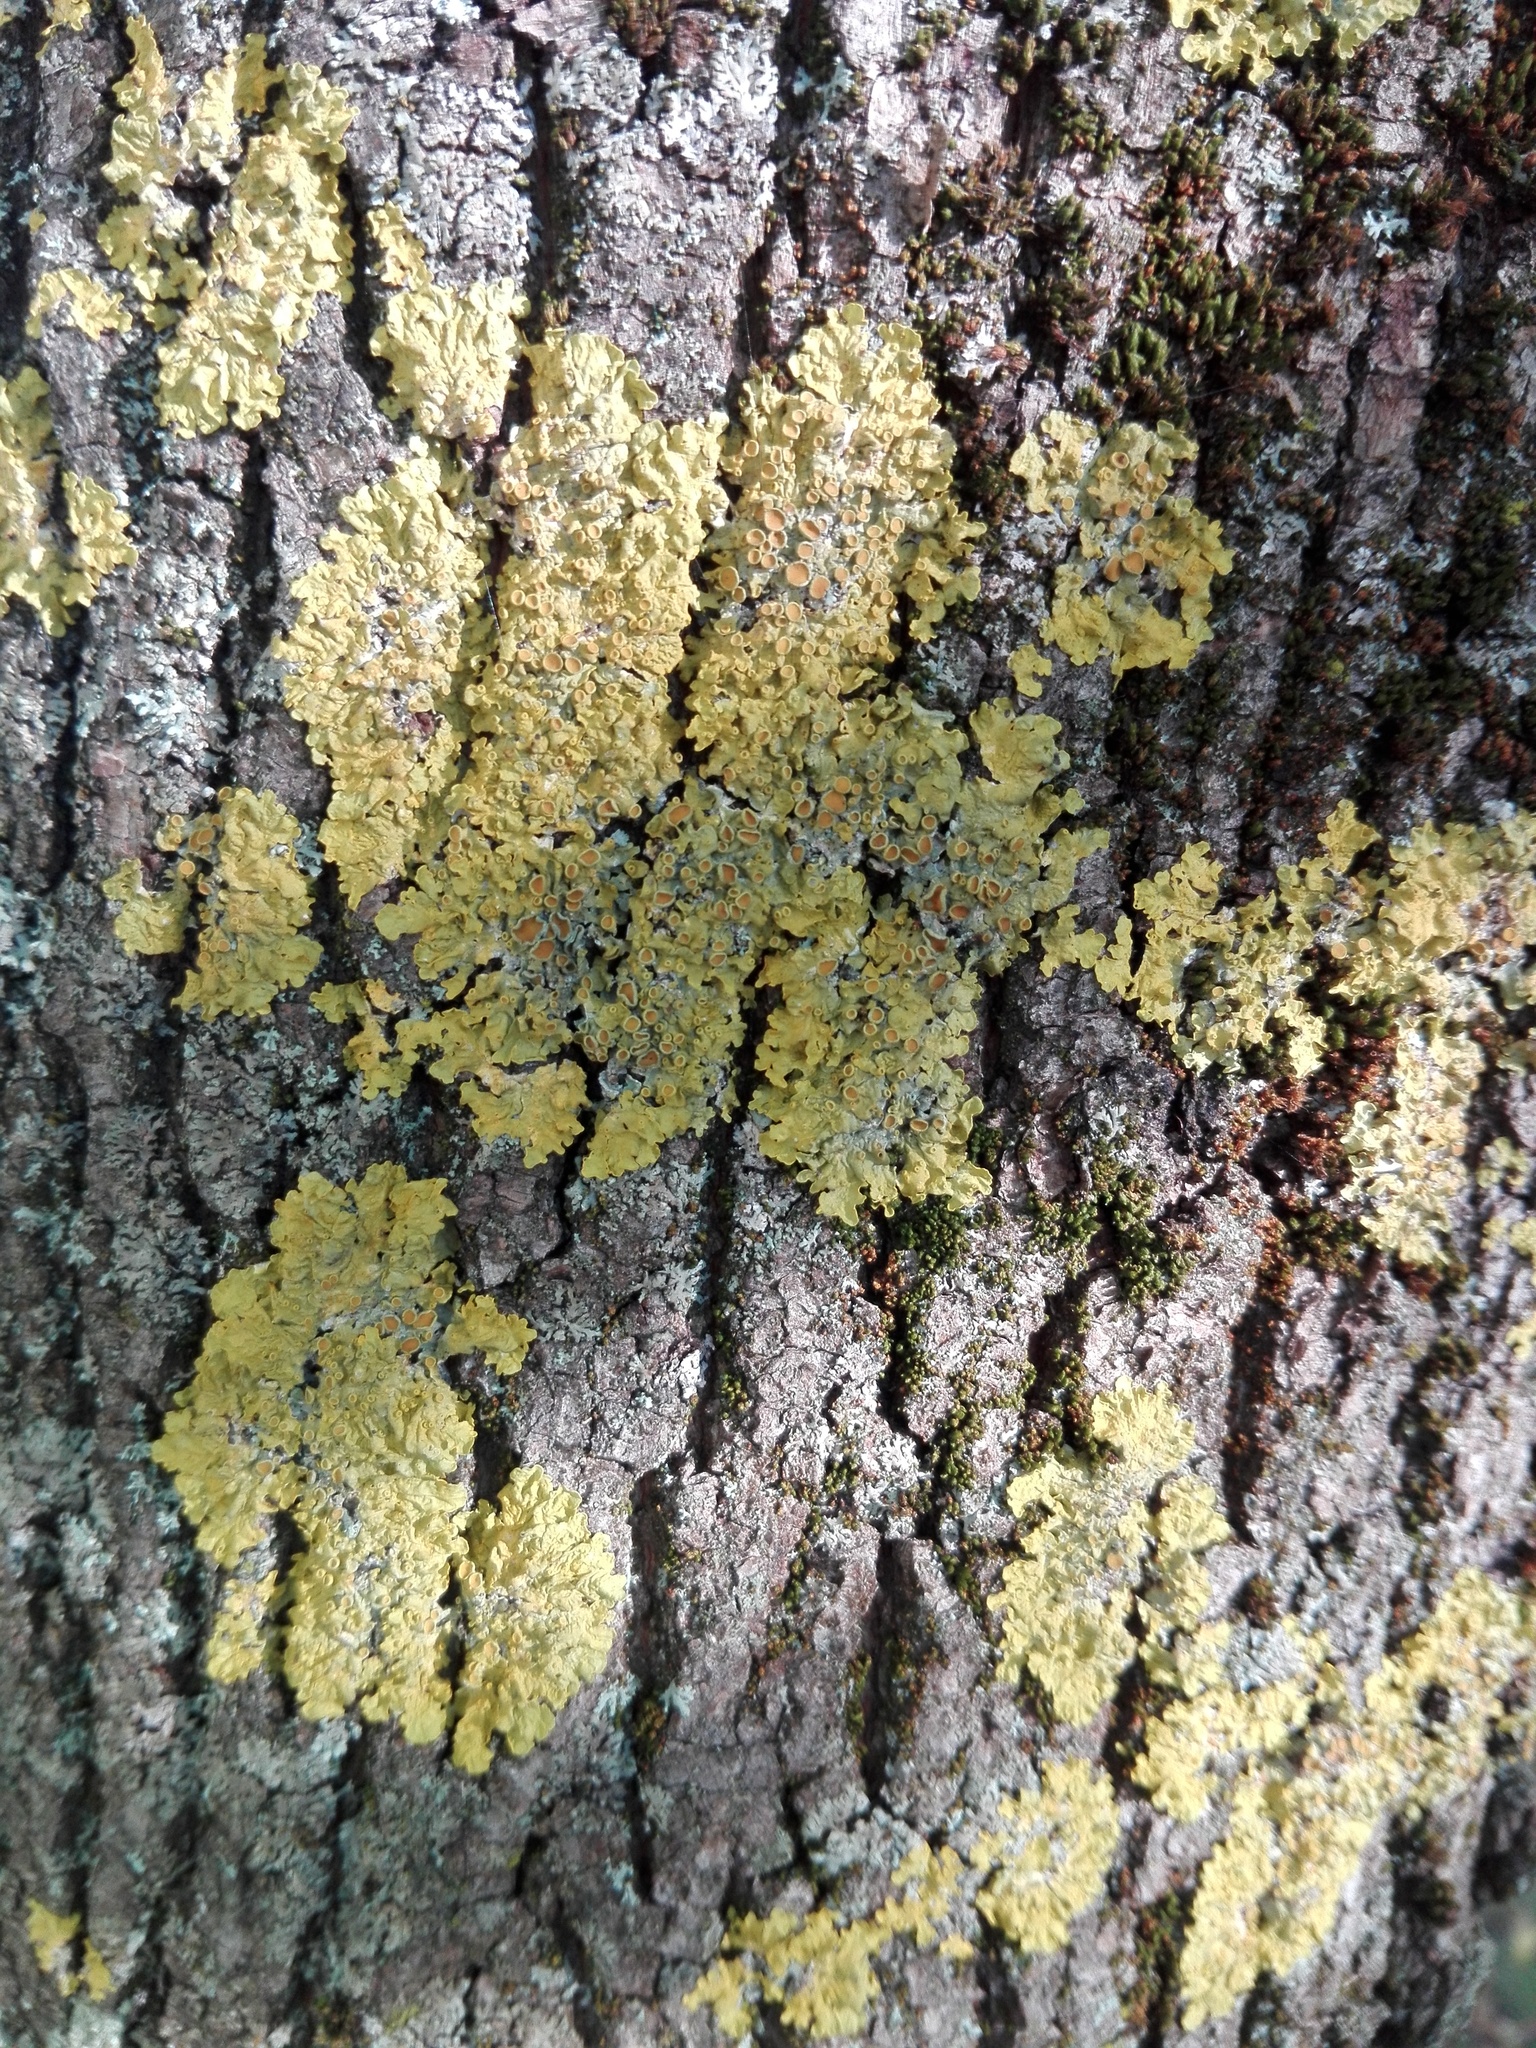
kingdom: Fungi
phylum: Ascomycota
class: Lecanoromycetes
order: Teloschistales
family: Teloschistaceae
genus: Xanthoria
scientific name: Xanthoria parietina
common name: Common orange lichen
